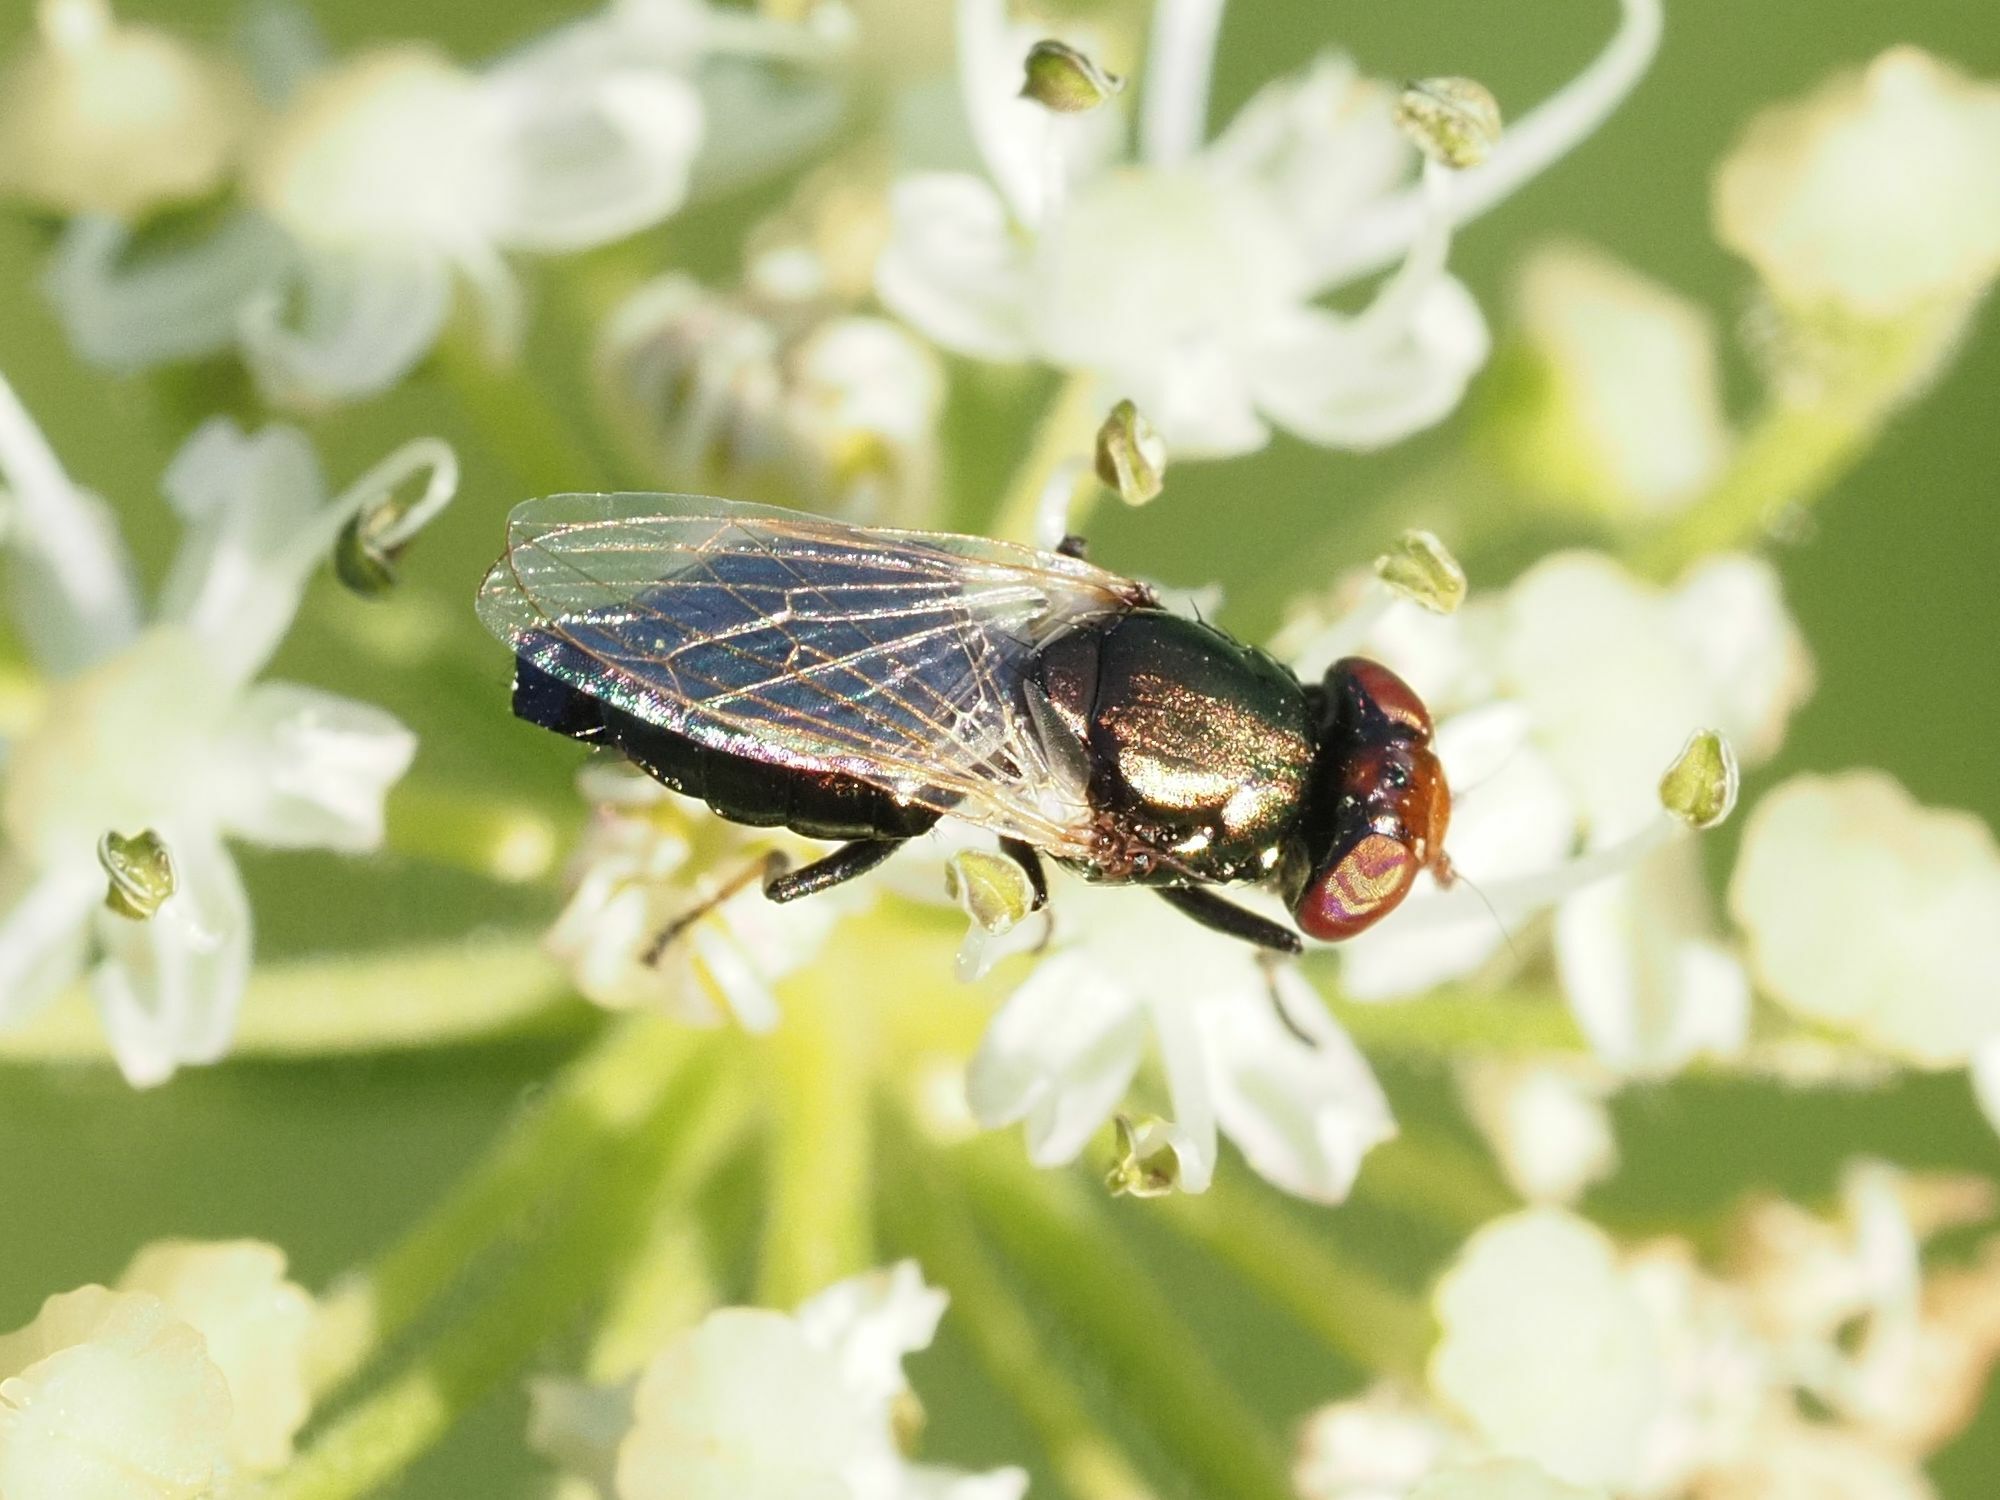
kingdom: Animalia
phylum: Arthropoda
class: Insecta
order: Diptera
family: Ulidiidae
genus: Physiphora
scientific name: Physiphora alceae
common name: Picture-winged fly
